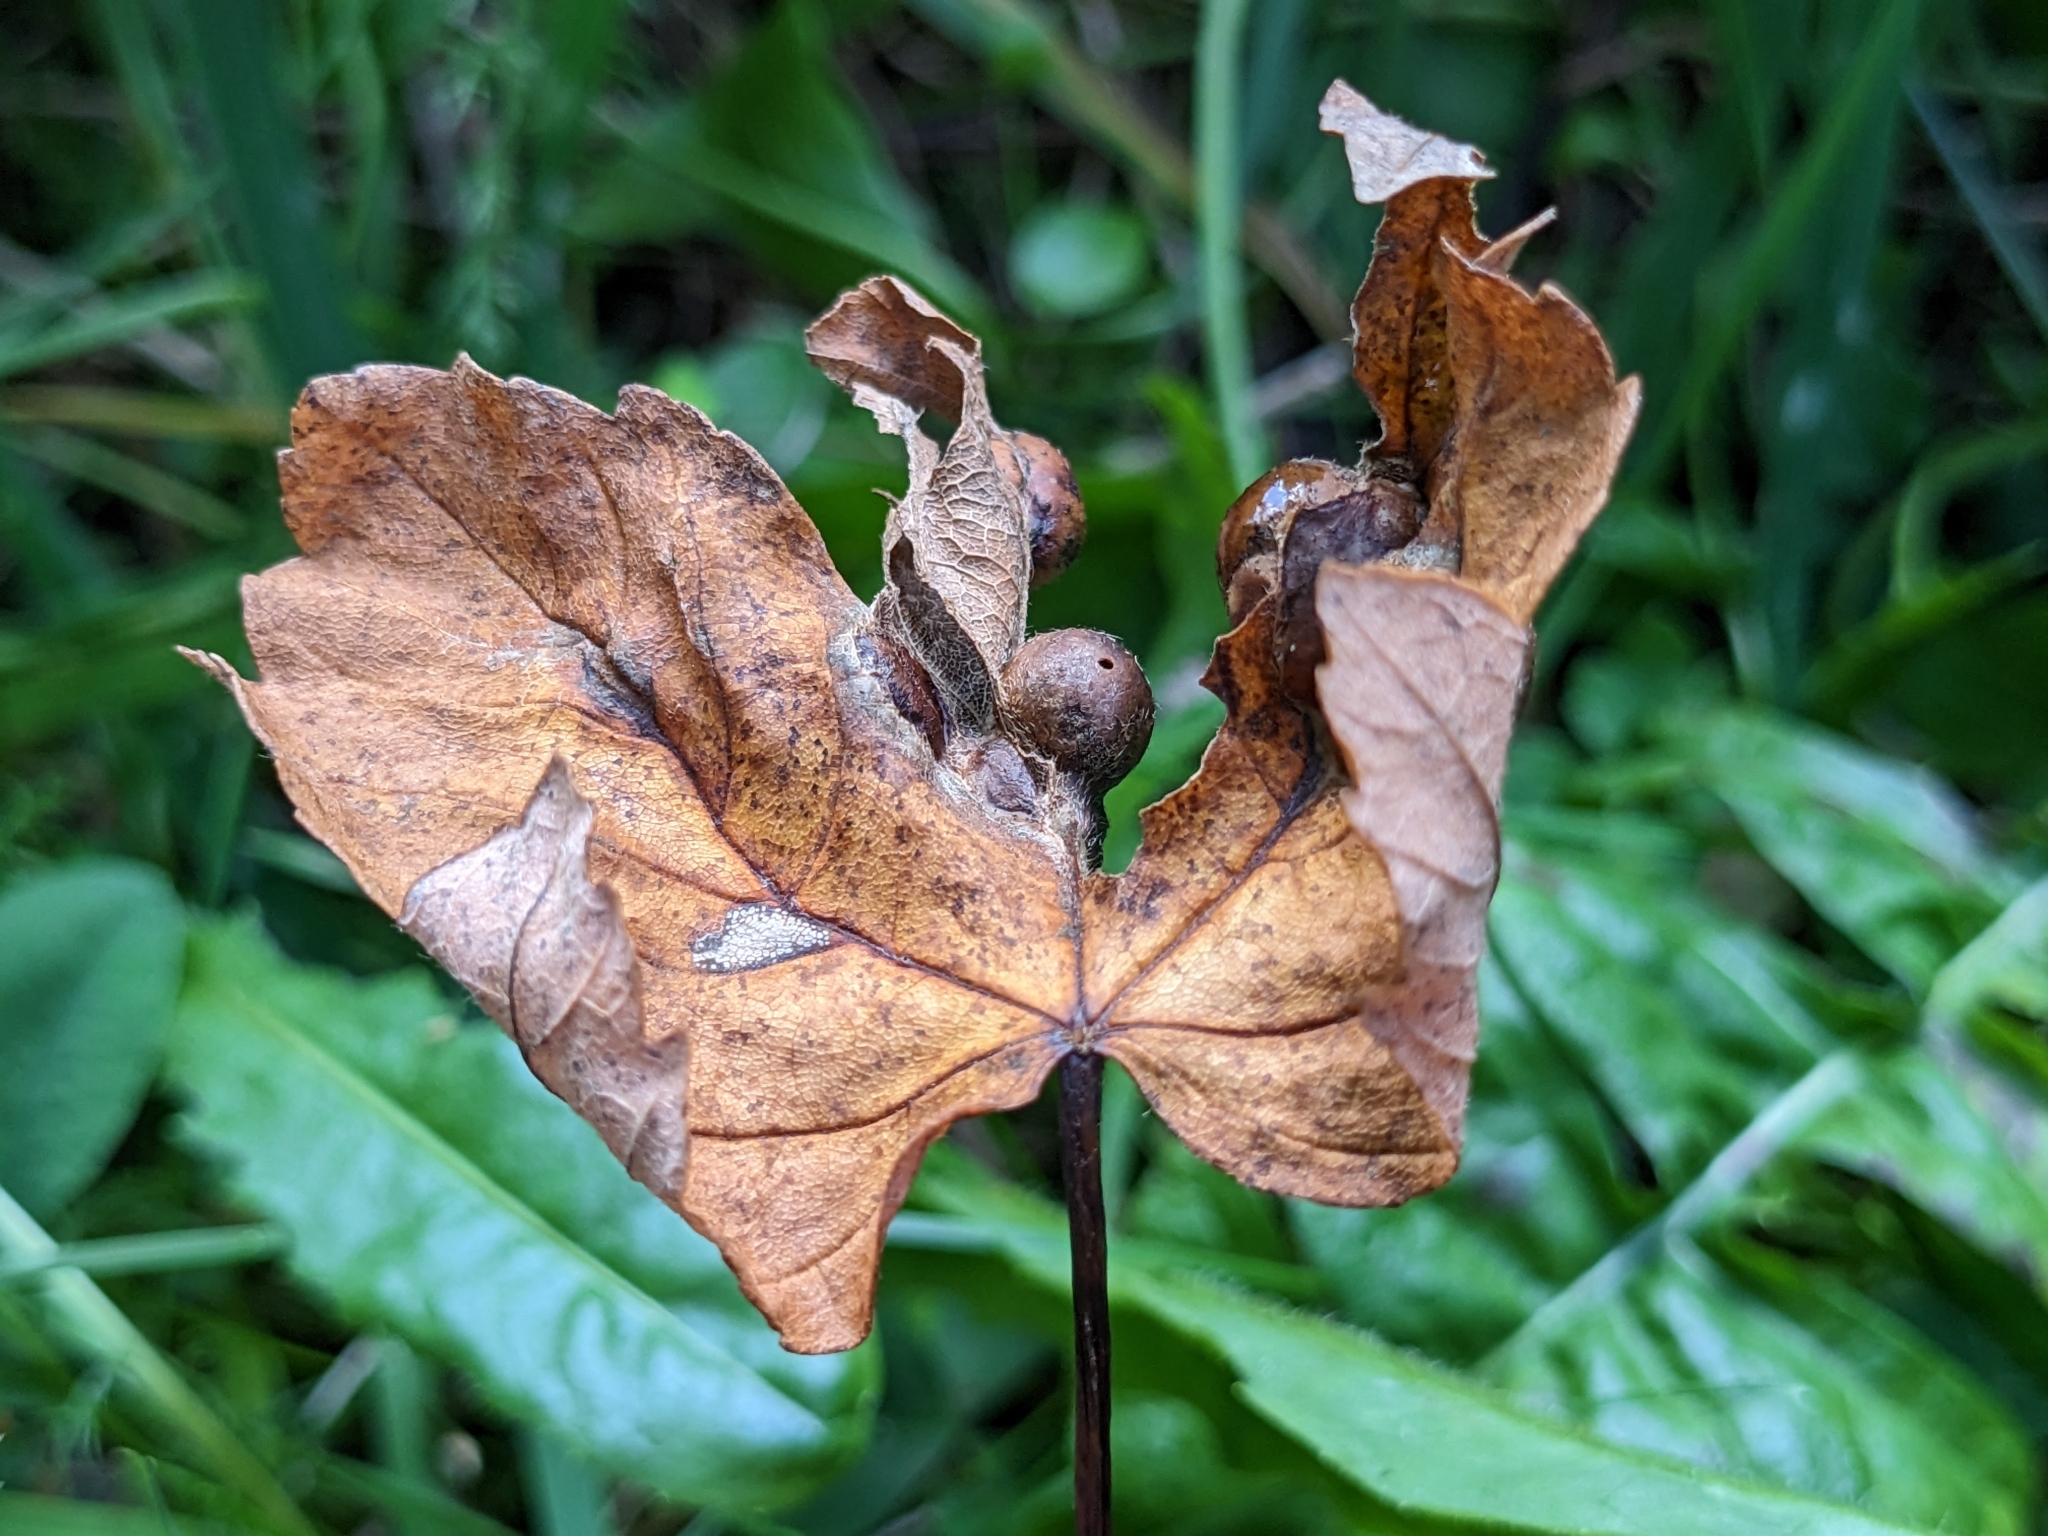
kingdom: Animalia
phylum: Arthropoda
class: Insecta
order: Hymenoptera
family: Cynipidae
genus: Pediaspis
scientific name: Pediaspis aceris
